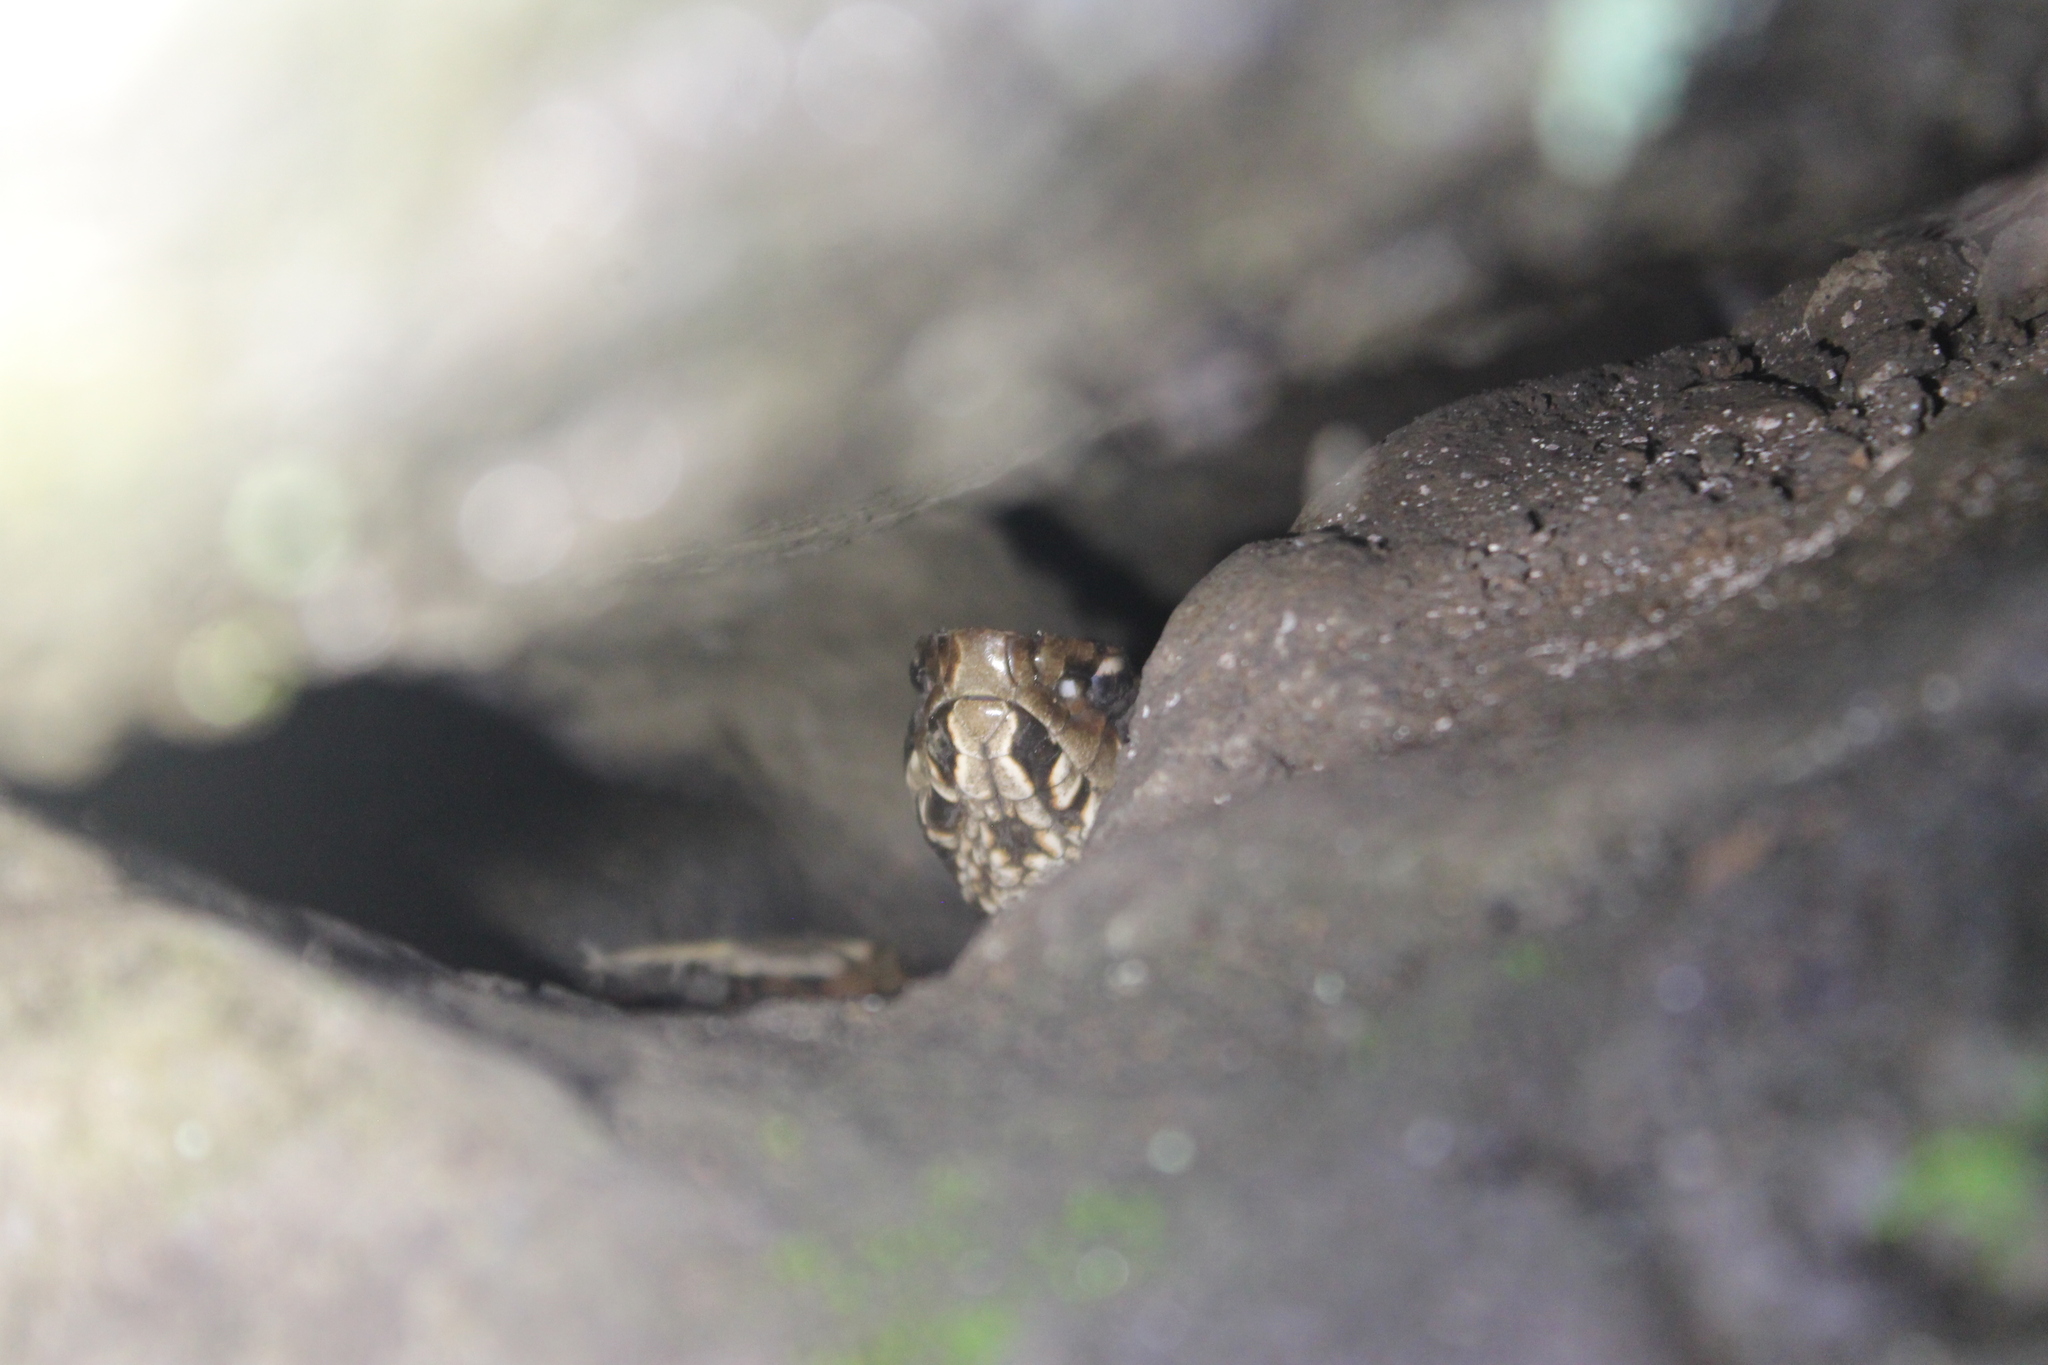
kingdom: Animalia
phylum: Chordata
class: Squamata
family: Viperidae
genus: Agkistrodon
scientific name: Agkistrodon piscivorus
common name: Cottonmouth
